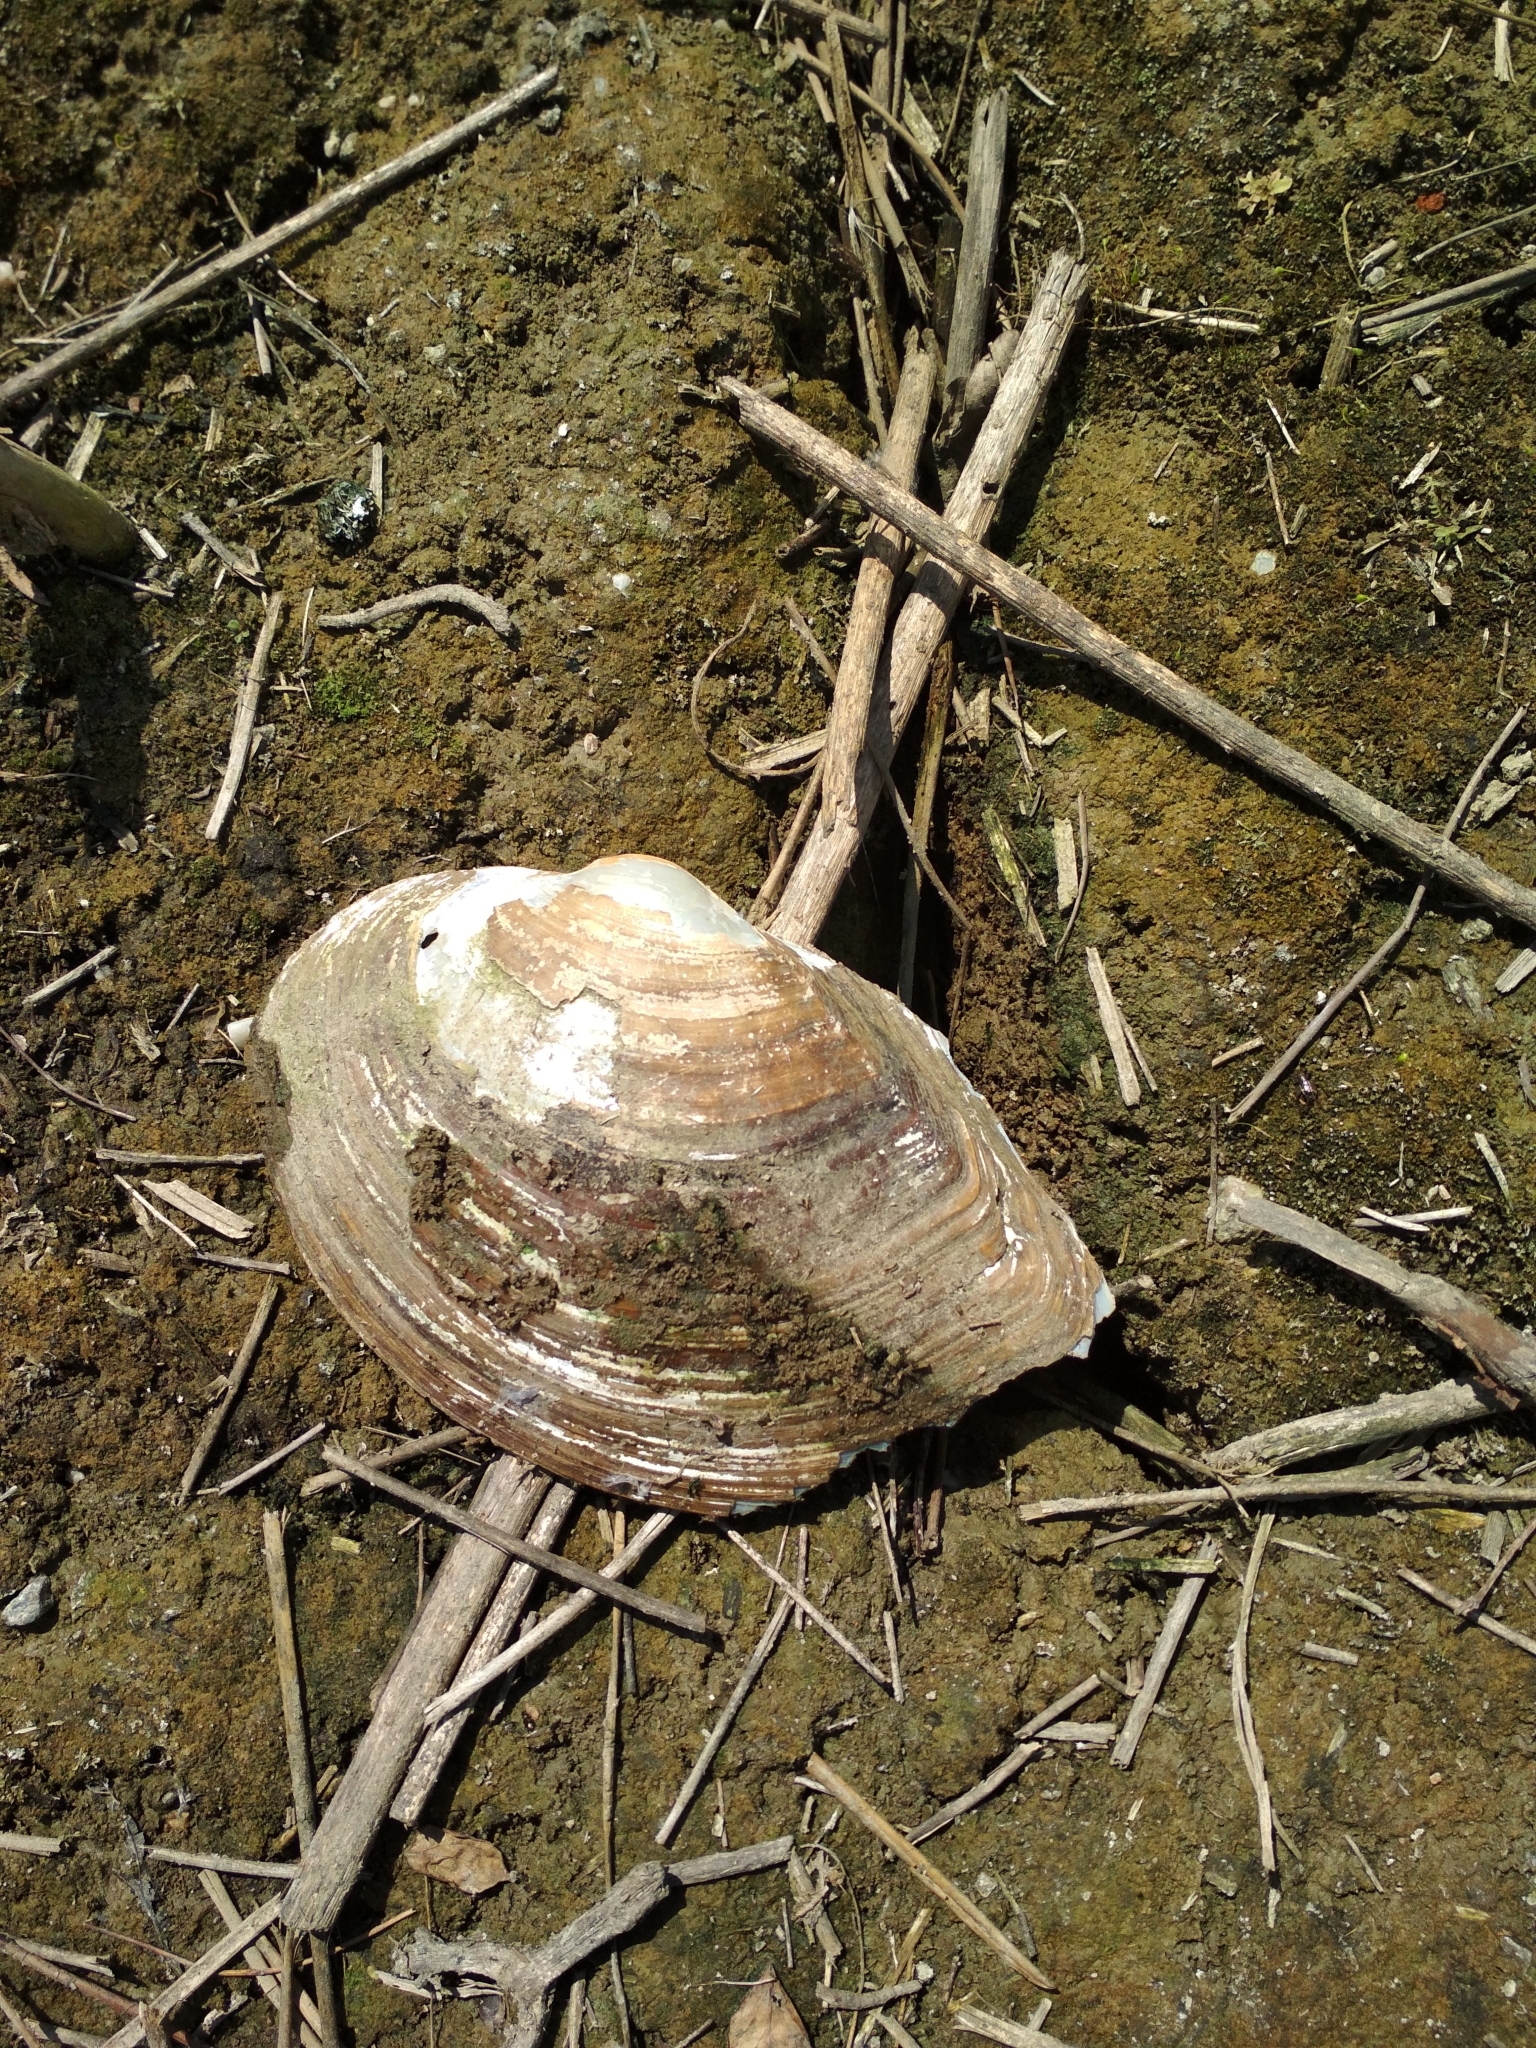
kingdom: Animalia
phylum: Mollusca
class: Bivalvia
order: Unionida
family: Unionidae
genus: Sinanodonta
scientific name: Sinanodonta woodiana
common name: Chinese pond mussel
